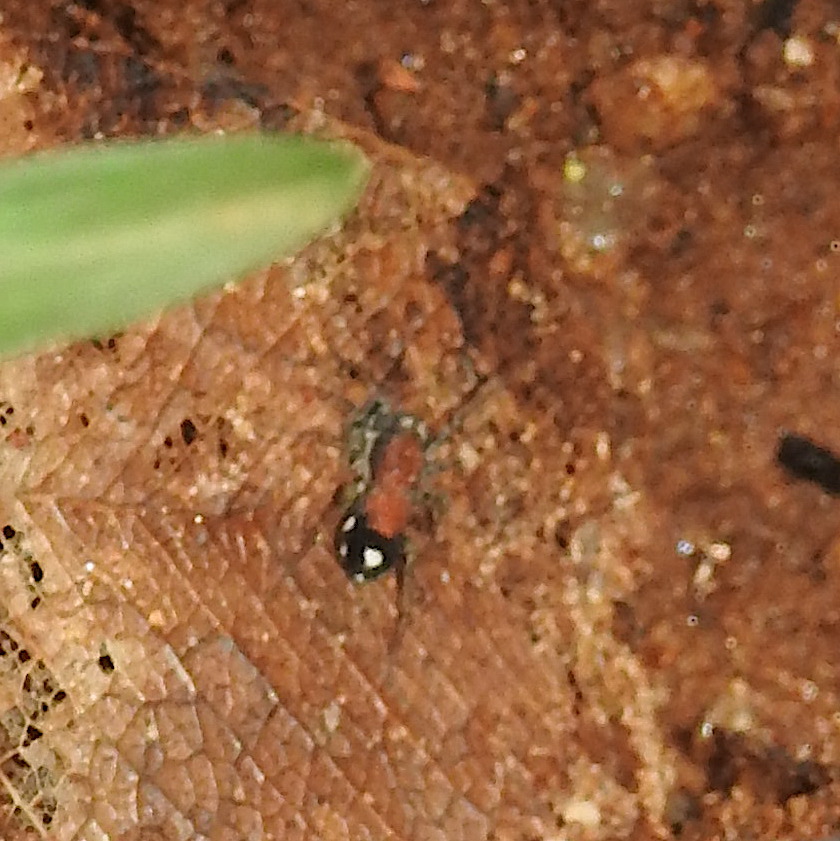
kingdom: Animalia
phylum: Arthropoda
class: Arachnida
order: Araneae
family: Corinnidae
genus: Coenoptychus
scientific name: Coenoptychus pulcher
